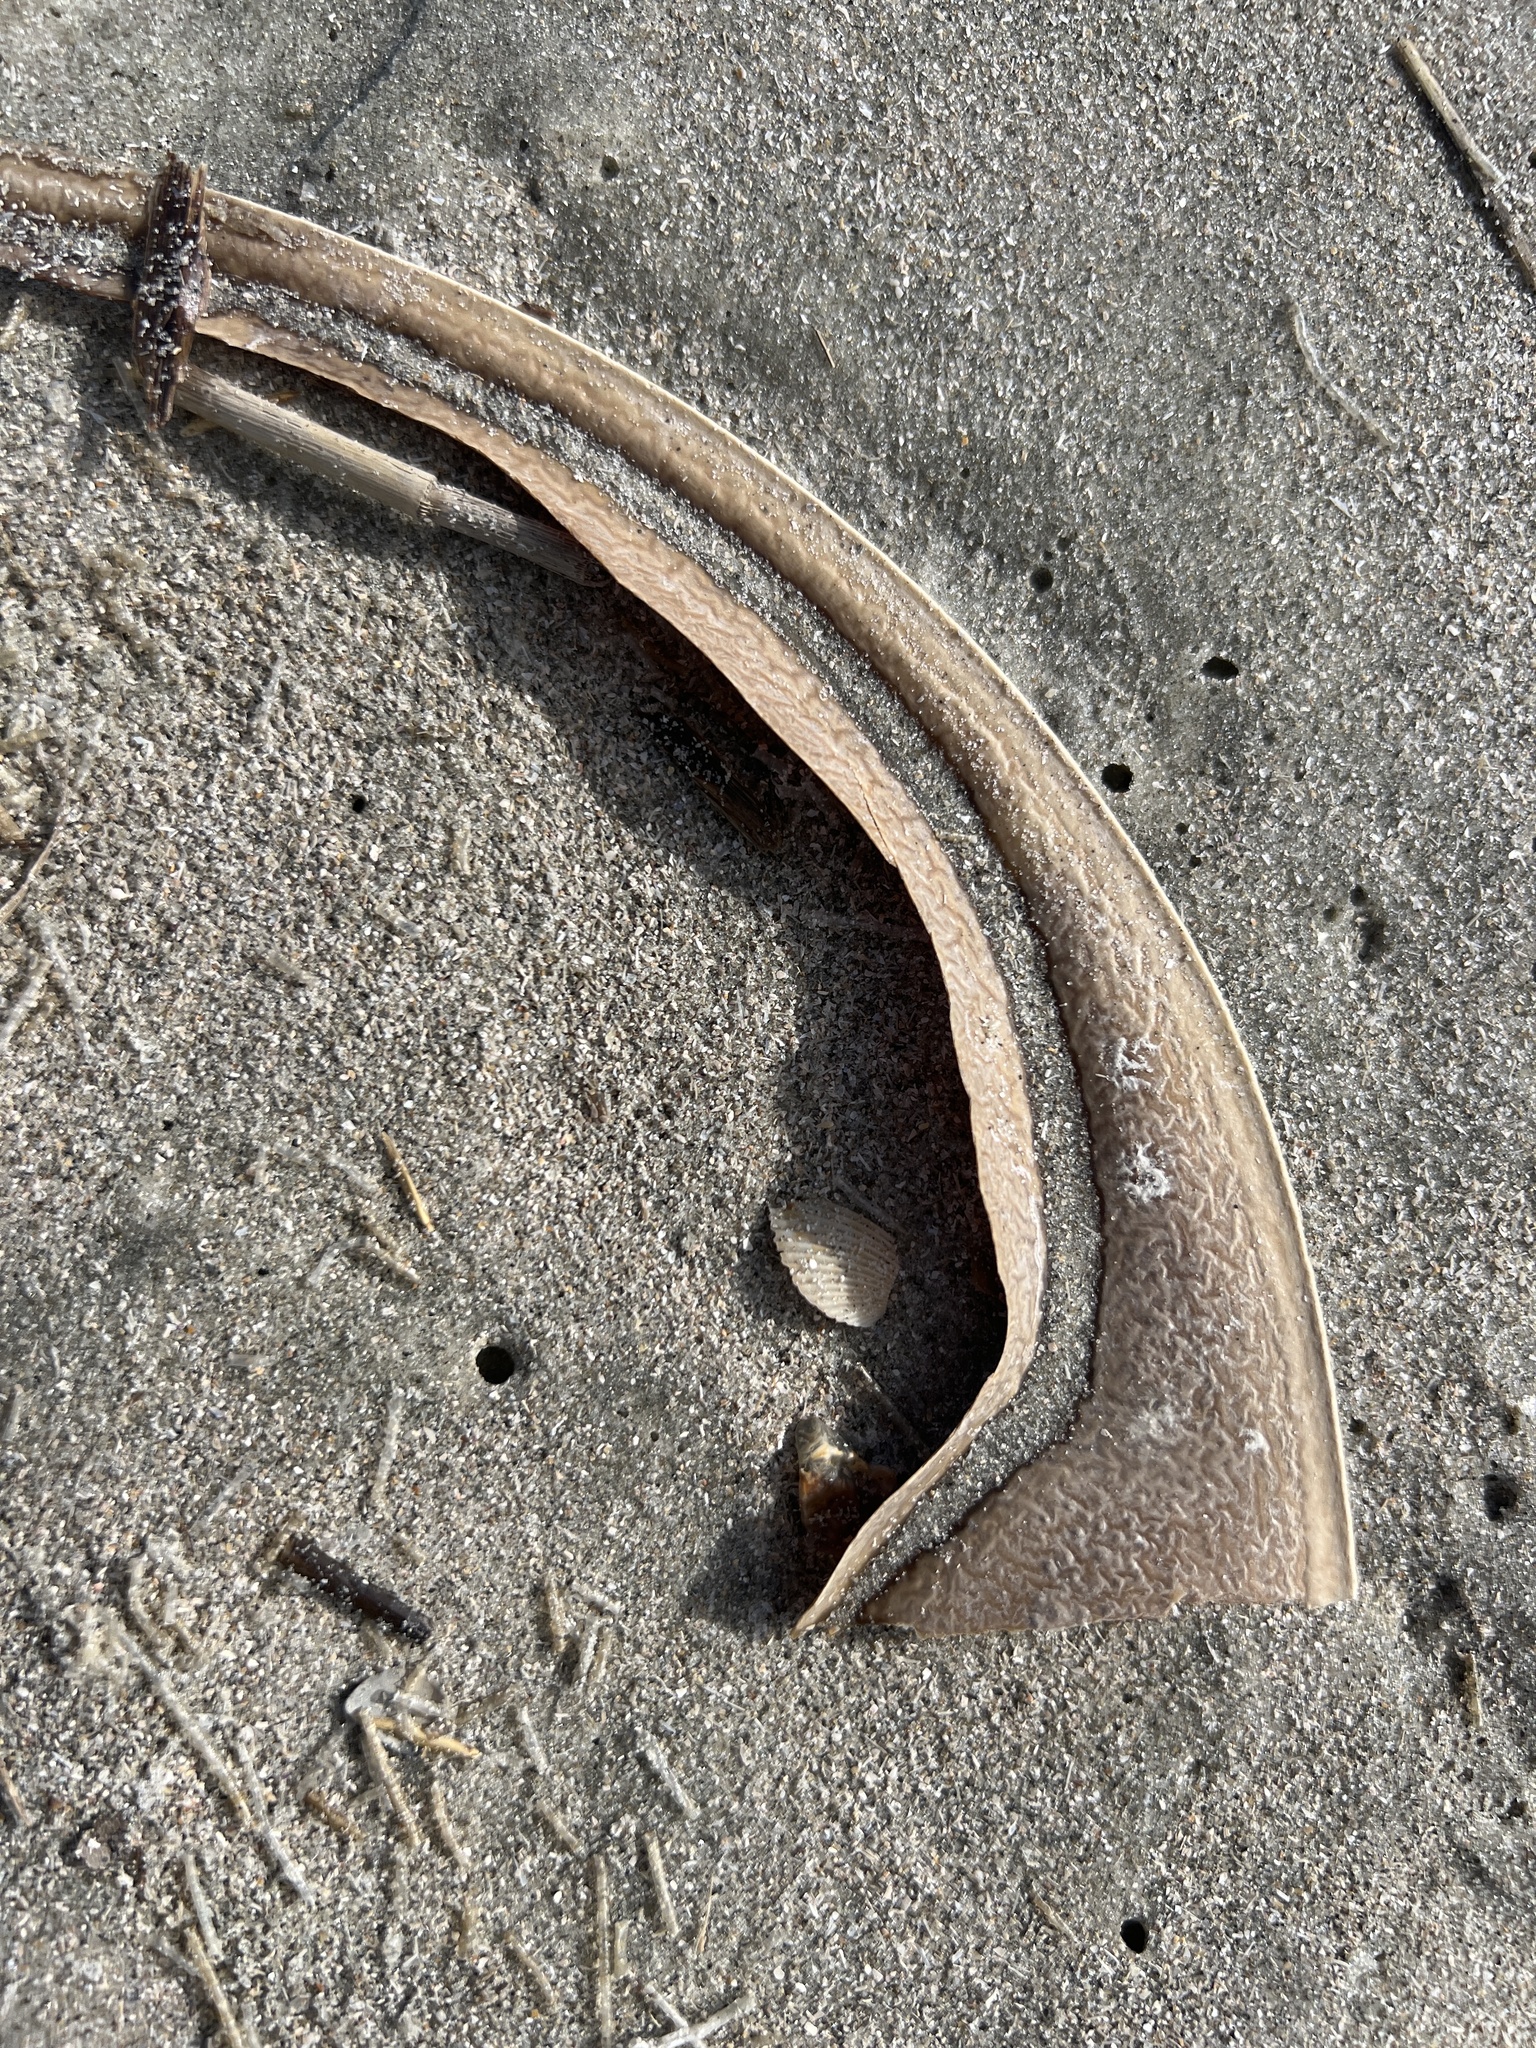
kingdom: Animalia
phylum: Arthropoda
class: Merostomata
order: Xiphosurida
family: Limulidae
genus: Limulus
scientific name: Limulus polyphemus
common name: Horseshoe crab
